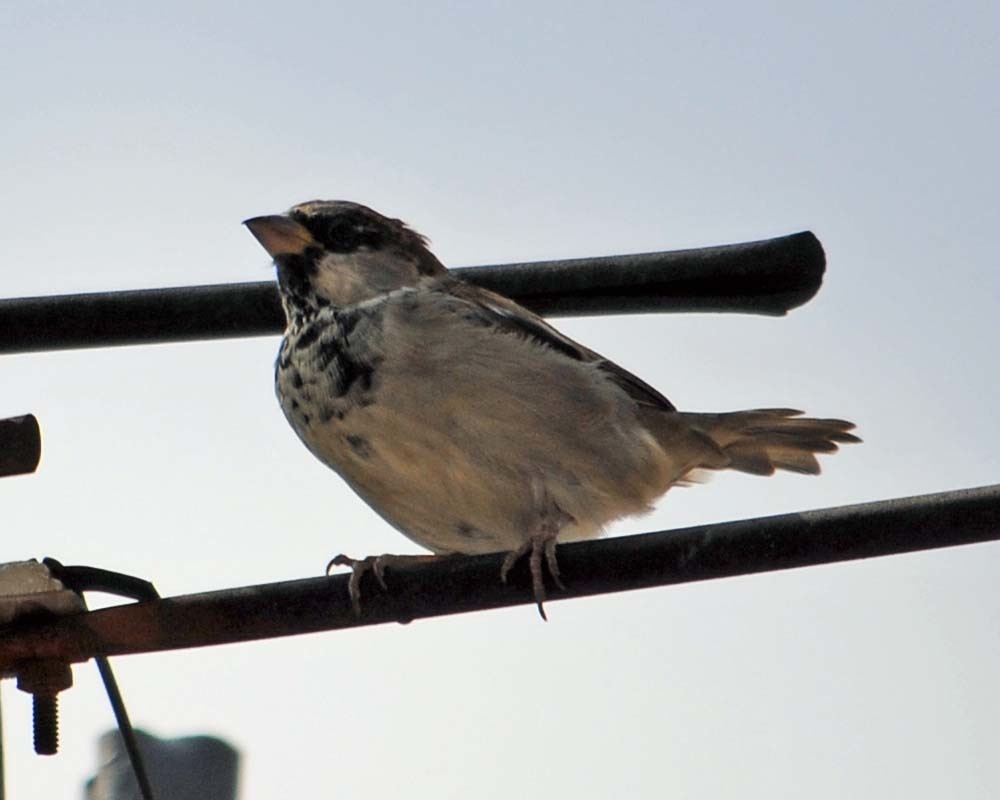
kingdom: Animalia
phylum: Chordata
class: Aves
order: Passeriformes
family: Passeridae
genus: Passer
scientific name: Passer domesticus
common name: House sparrow
